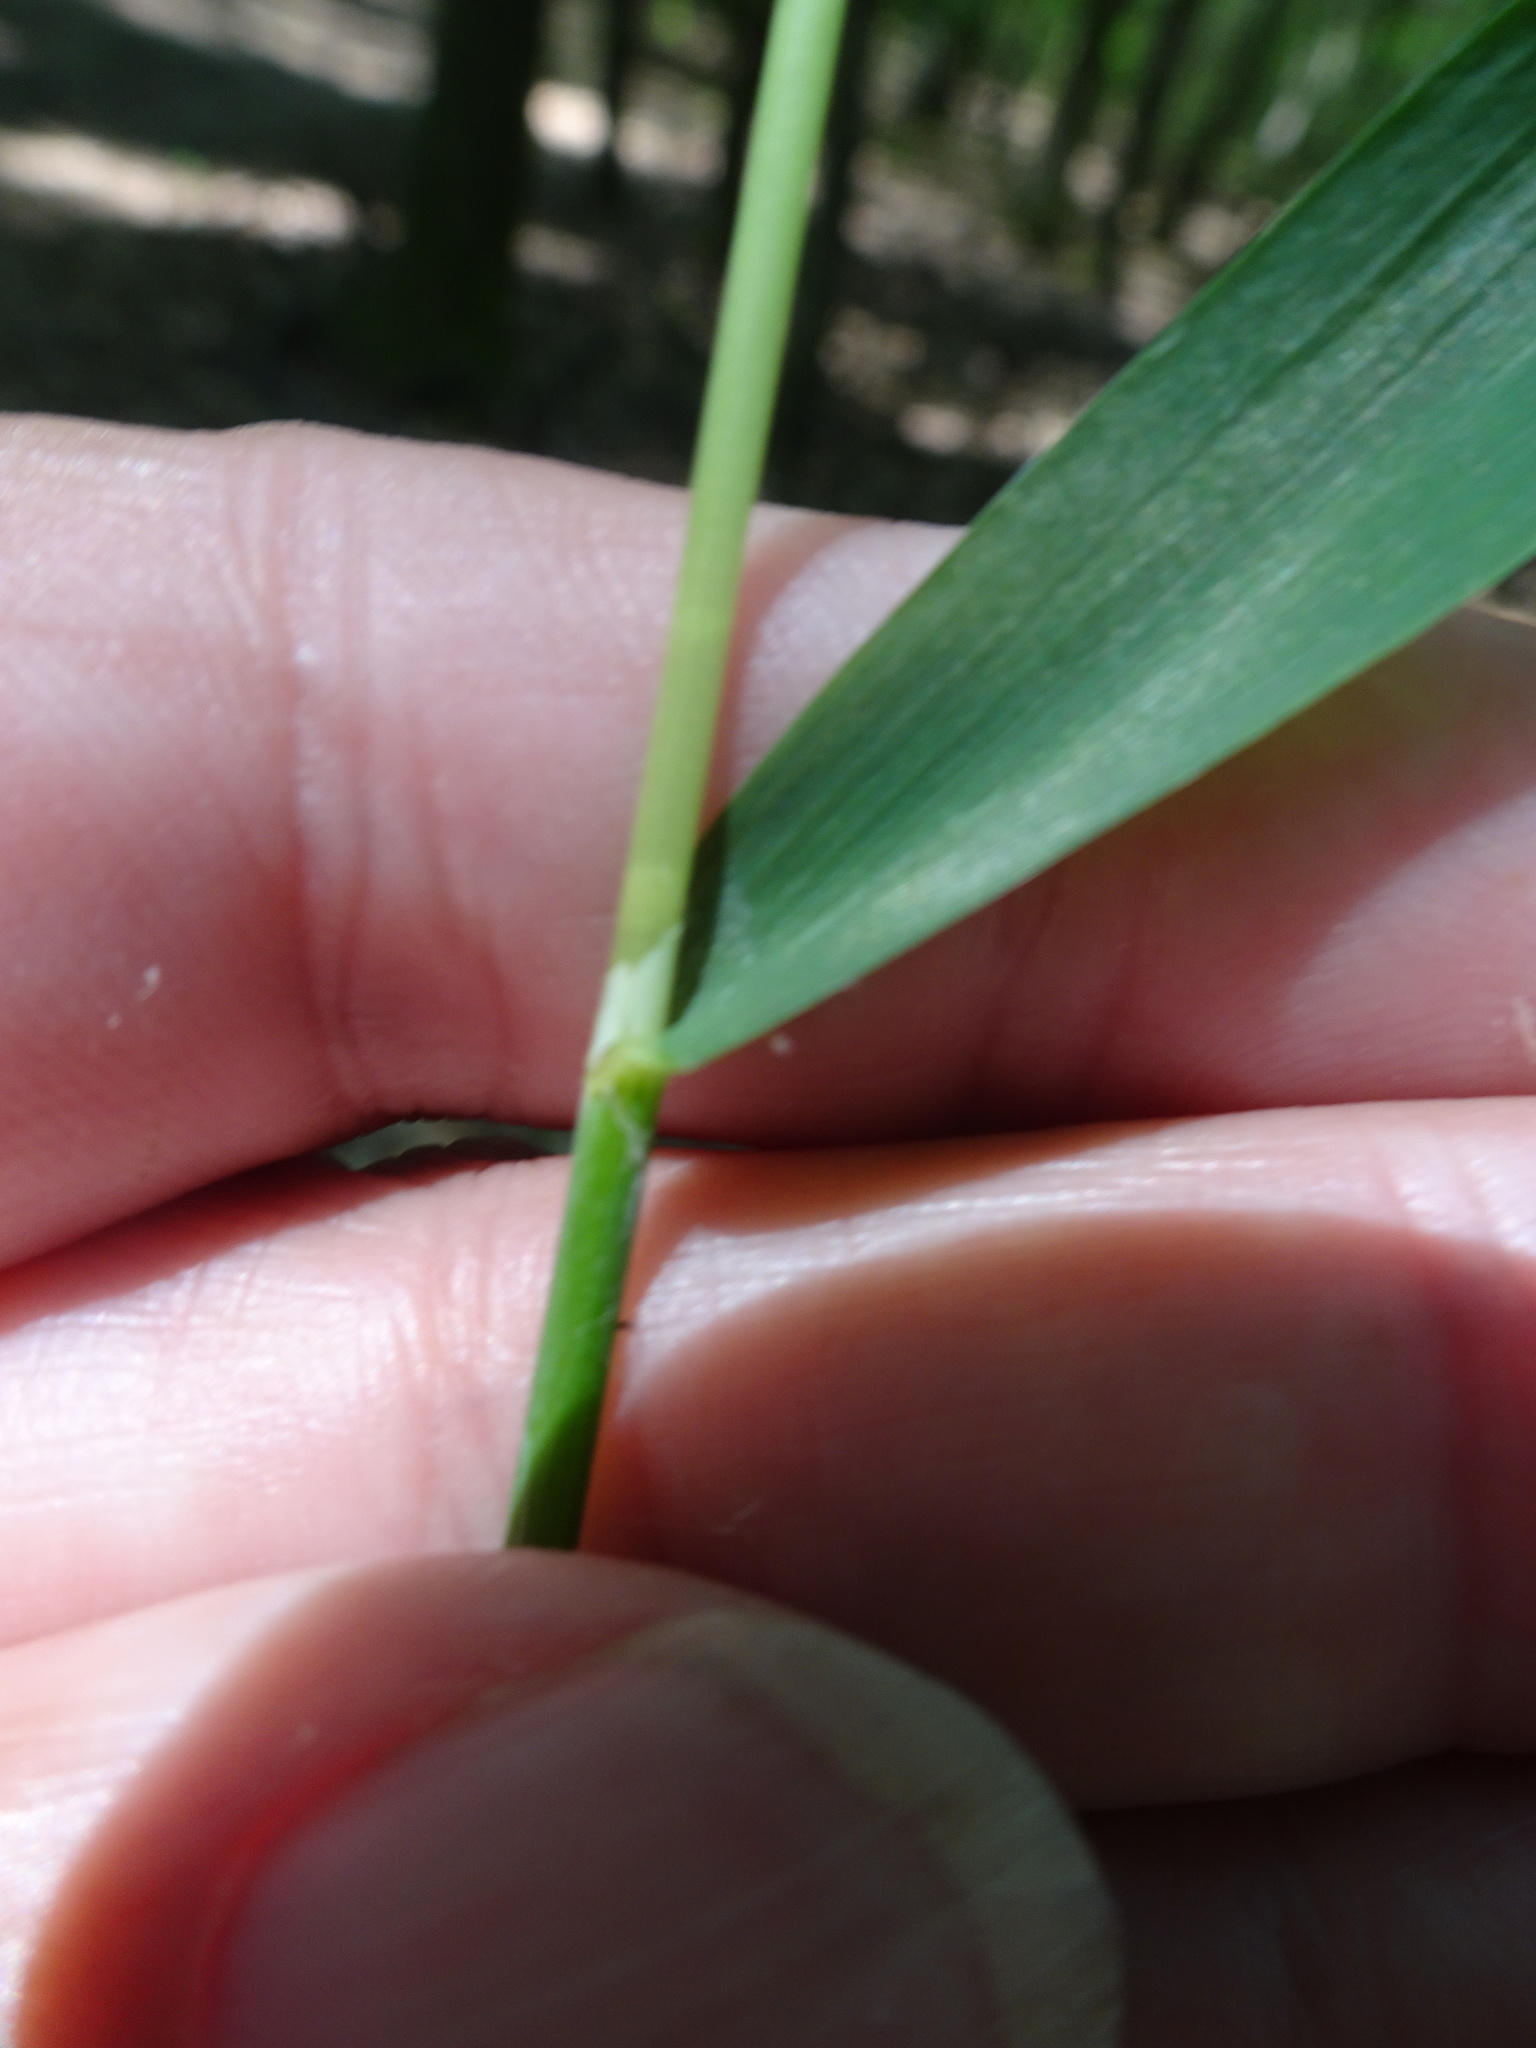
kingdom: Plantae
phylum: Tracheophyta
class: Liliopsida
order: Poales
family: Poaceae
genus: Milium
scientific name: Milium effusum
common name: Wood millet
